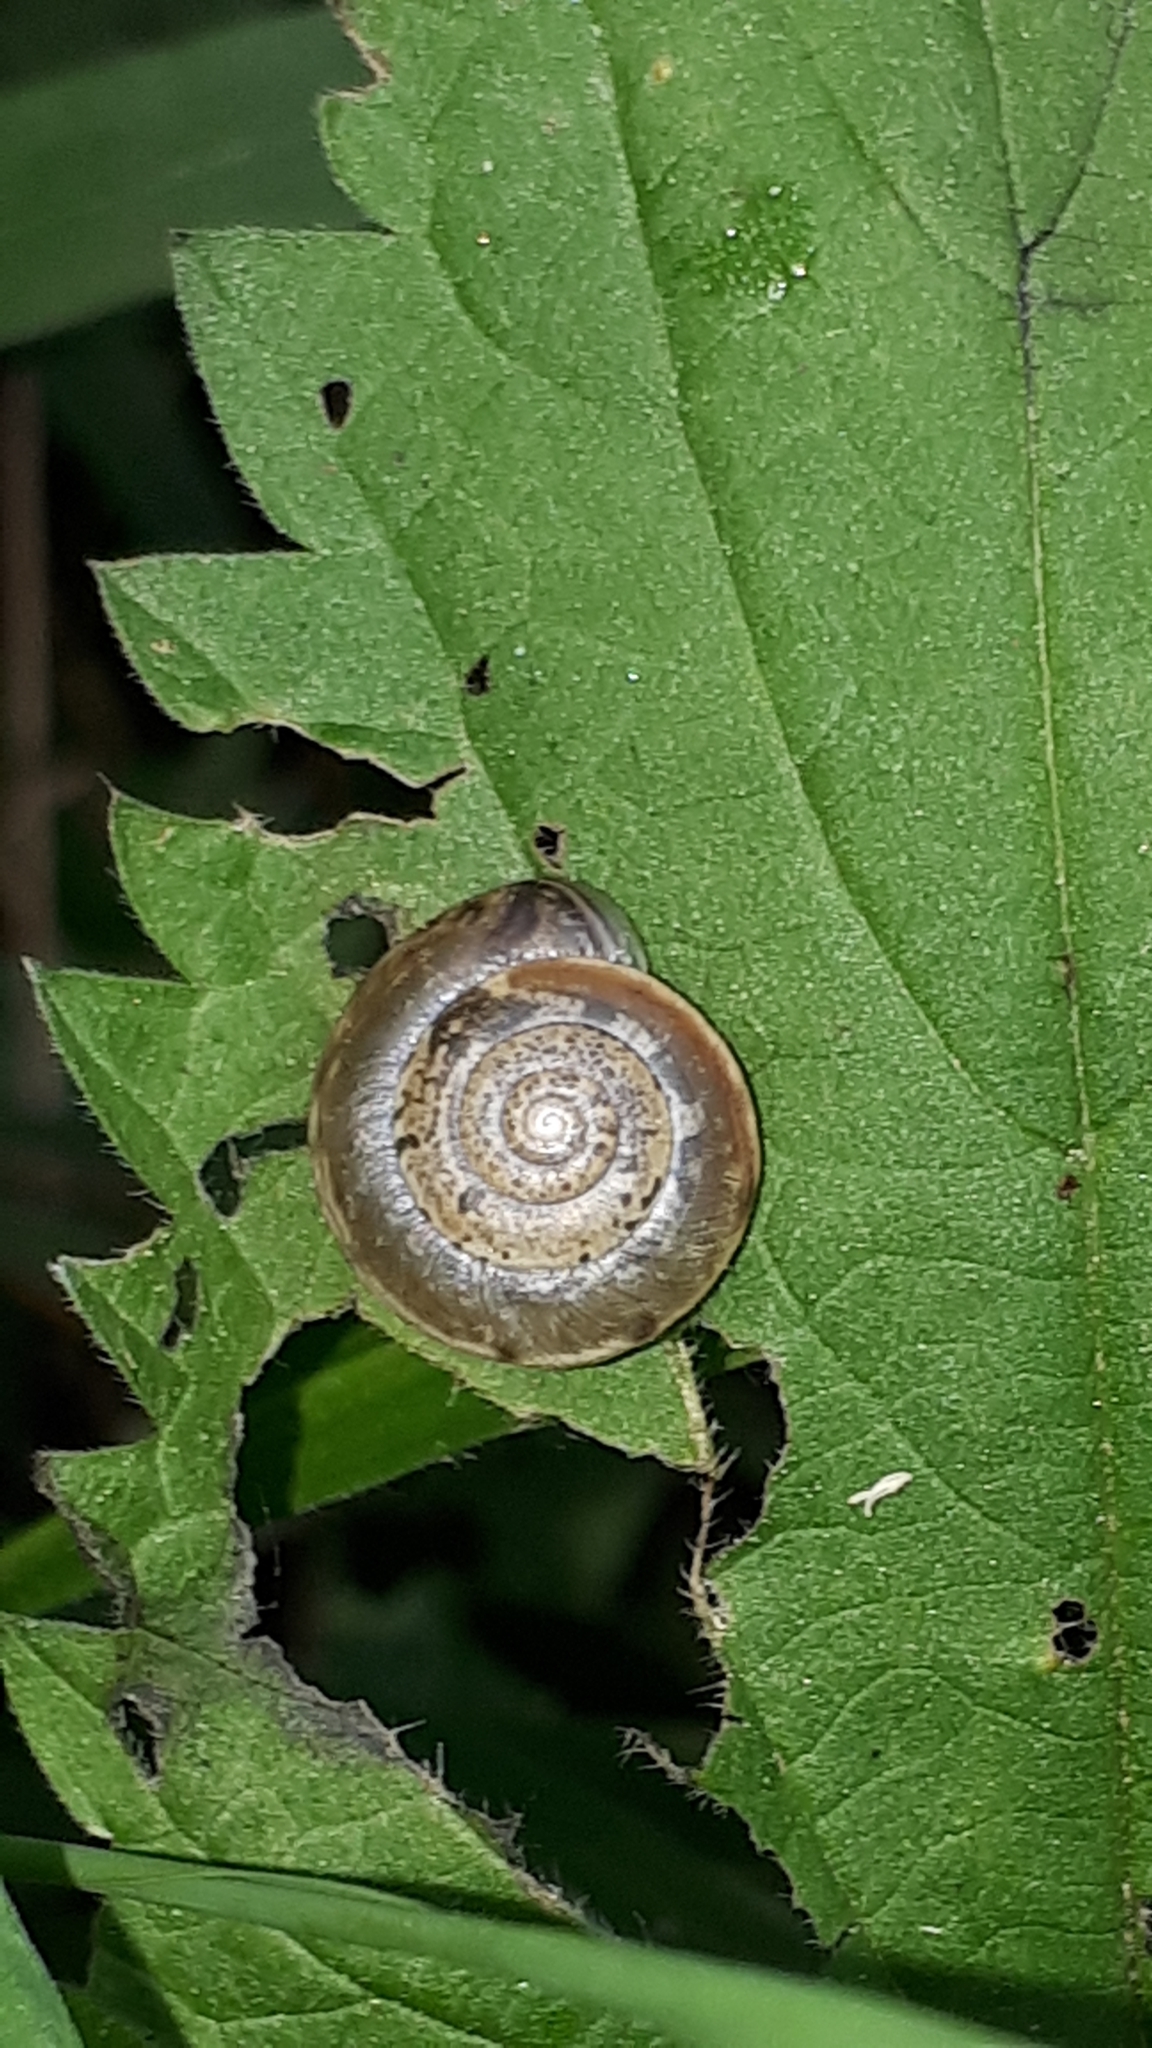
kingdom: Animalia
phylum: Mollusca
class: Gastropoda
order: Stylommatophora
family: Hygromiidae
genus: Urticicola
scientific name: Urticicola umbrosus
